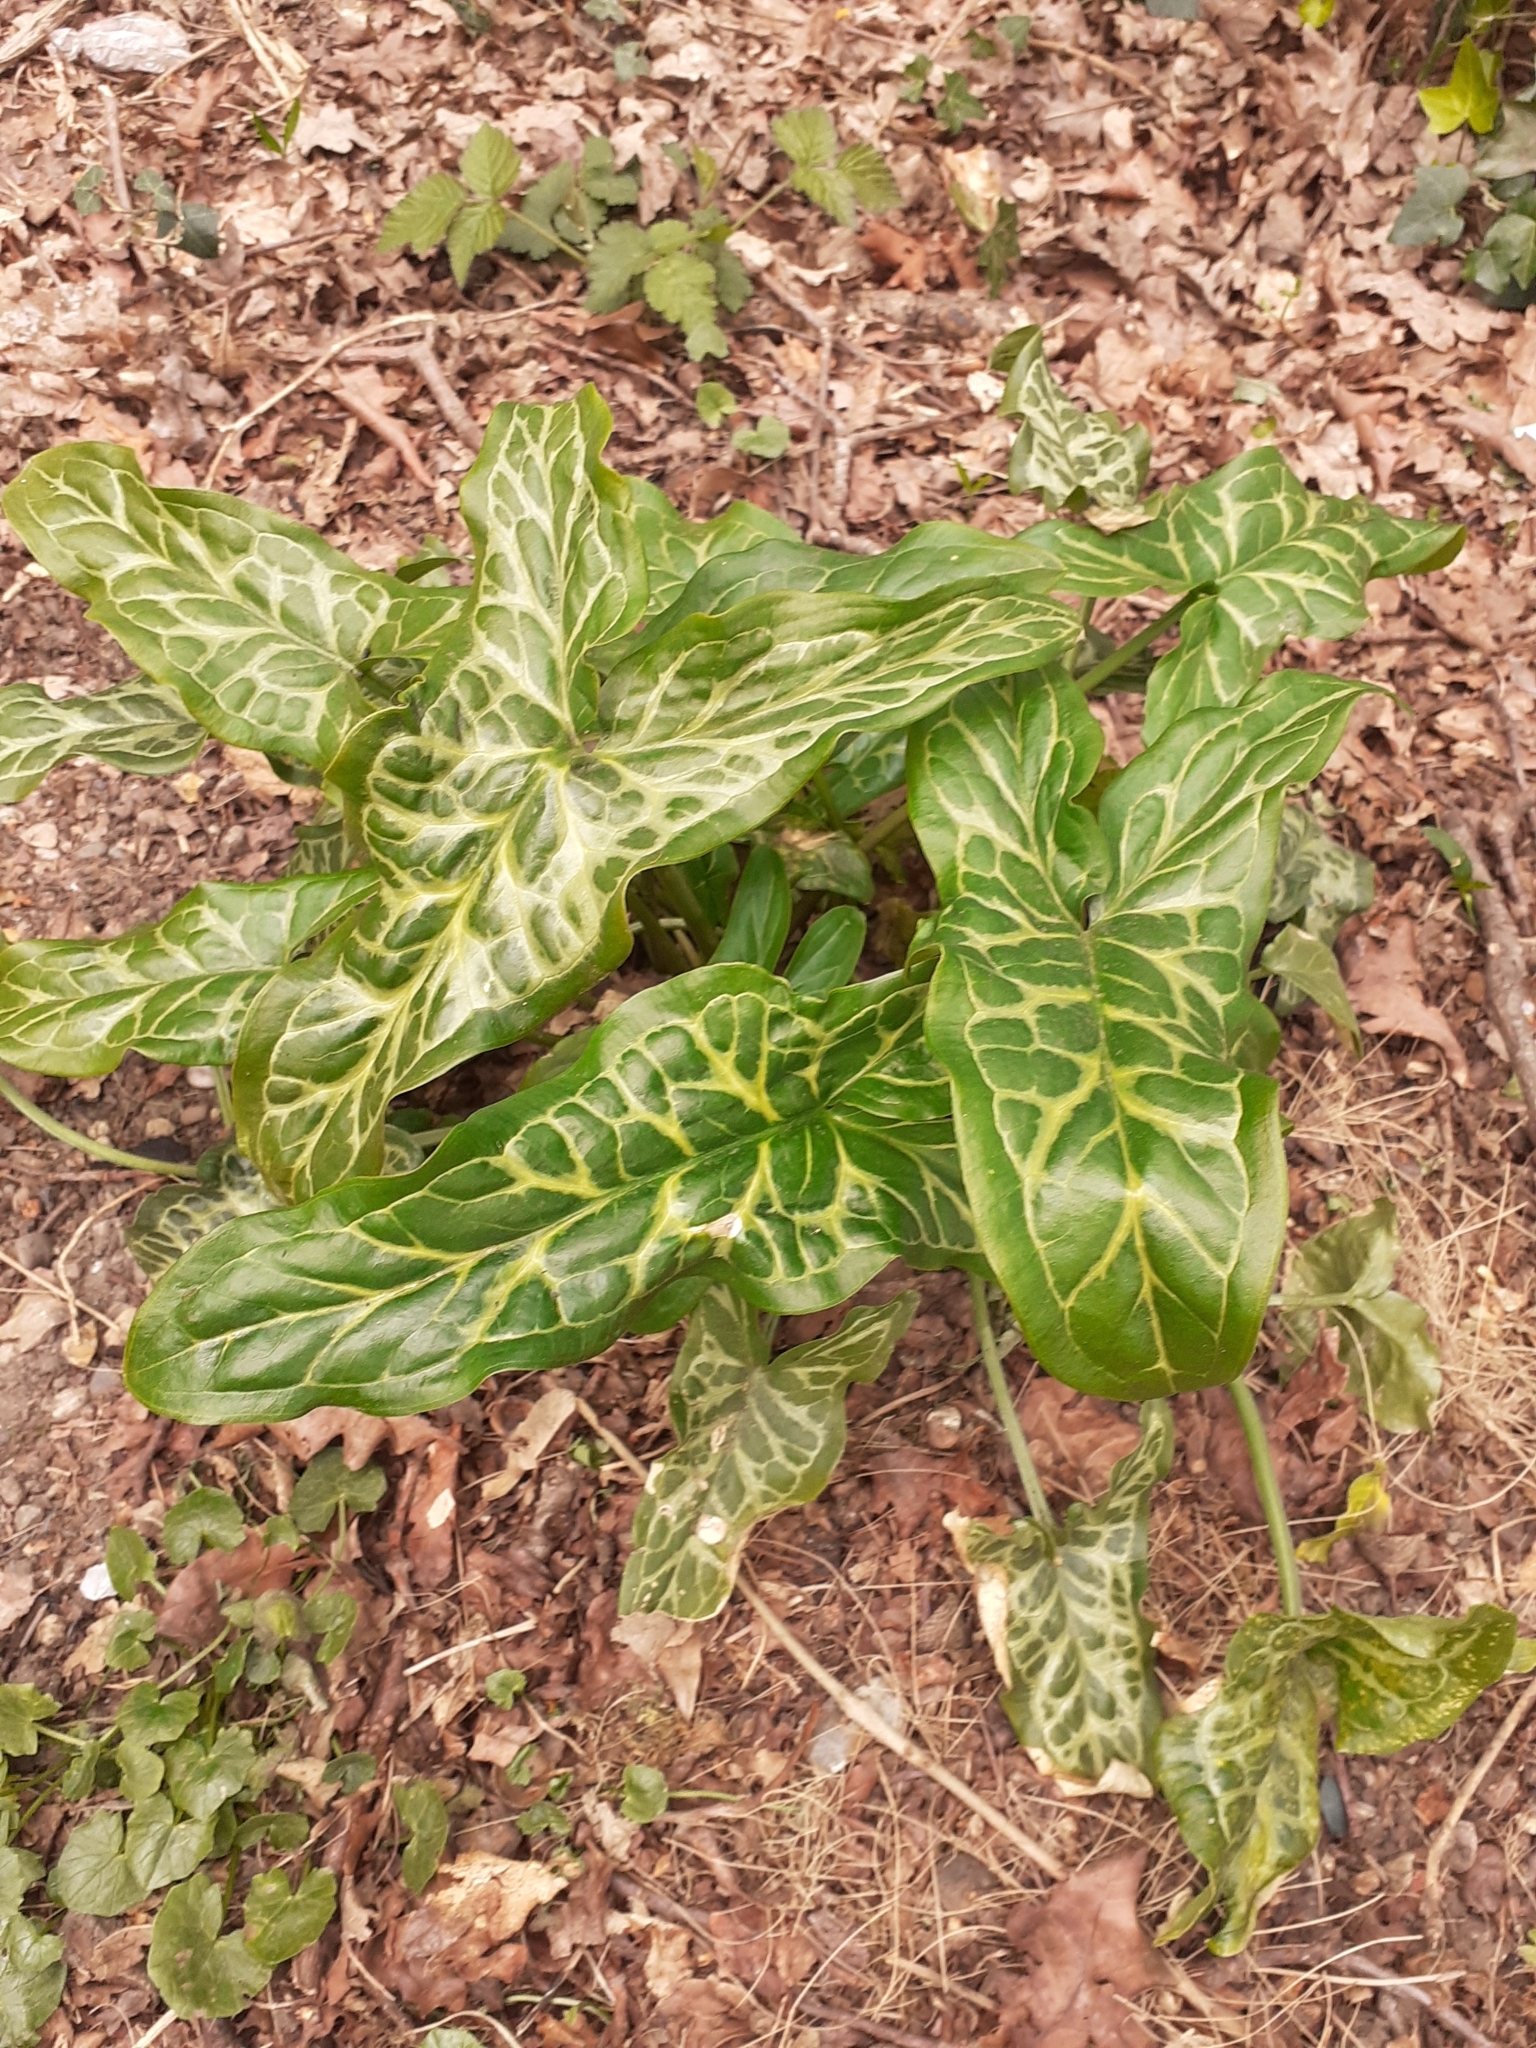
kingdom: Plantae
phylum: Tracheophyta
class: Liliopsida
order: Alismatales
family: Araceae
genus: Arum
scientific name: Arum italicum
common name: Italian lords-and-ladies
